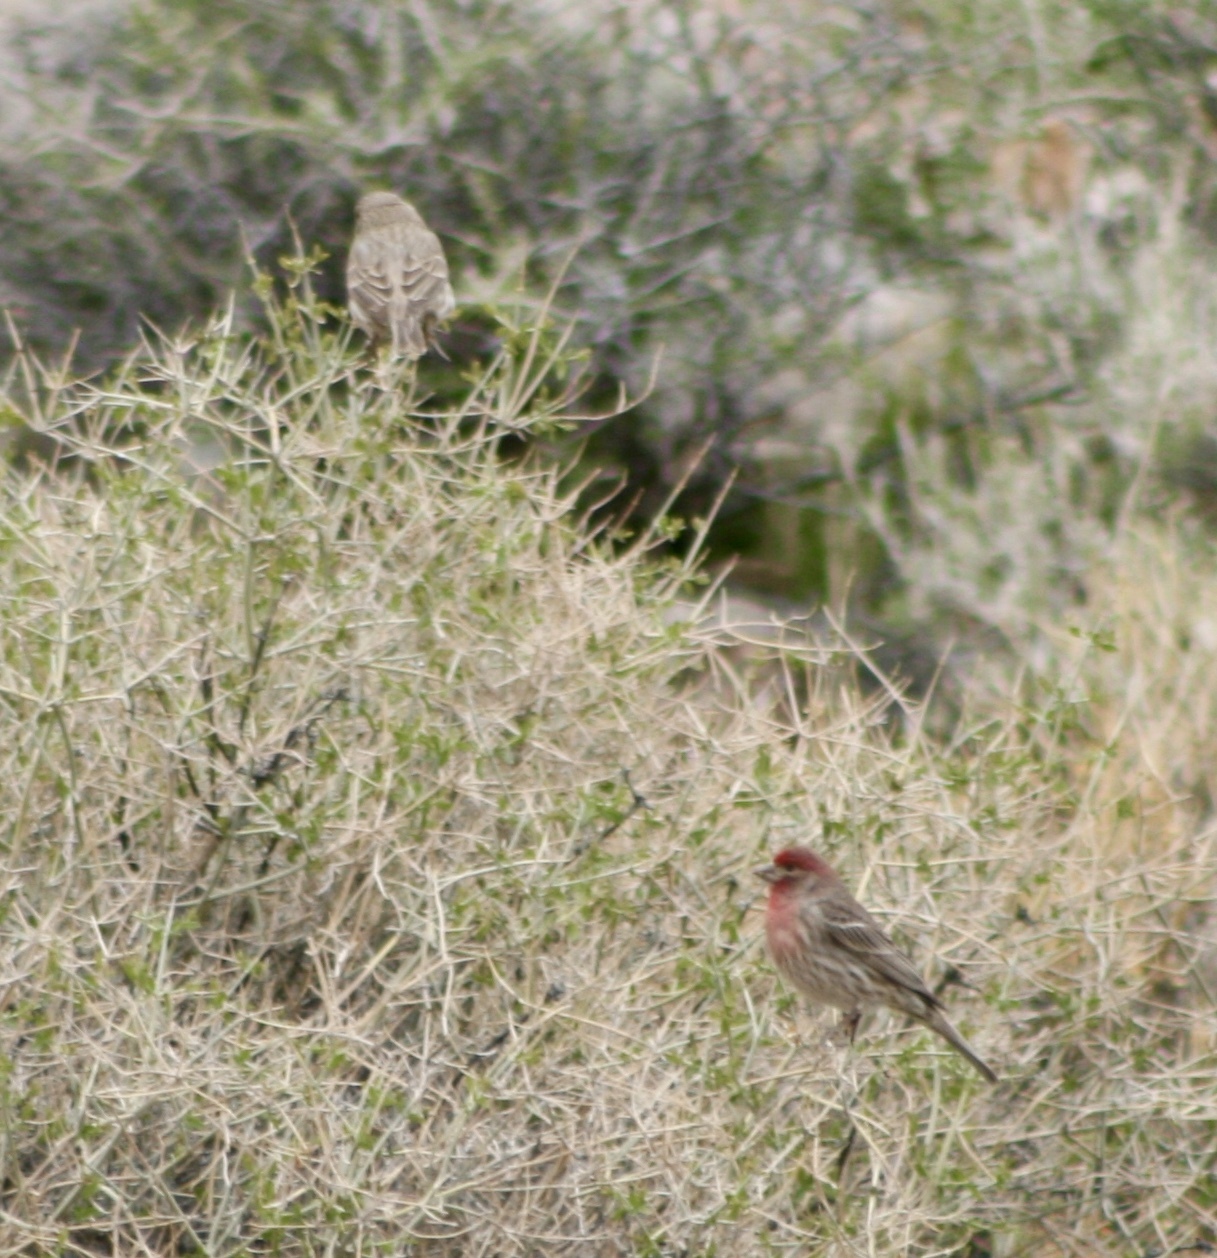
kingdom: Animalia
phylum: Chordata
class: Aves
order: Passeriformes
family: Fringillidae
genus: Haemorhous
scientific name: Haemorhous mexicanus
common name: House finch
